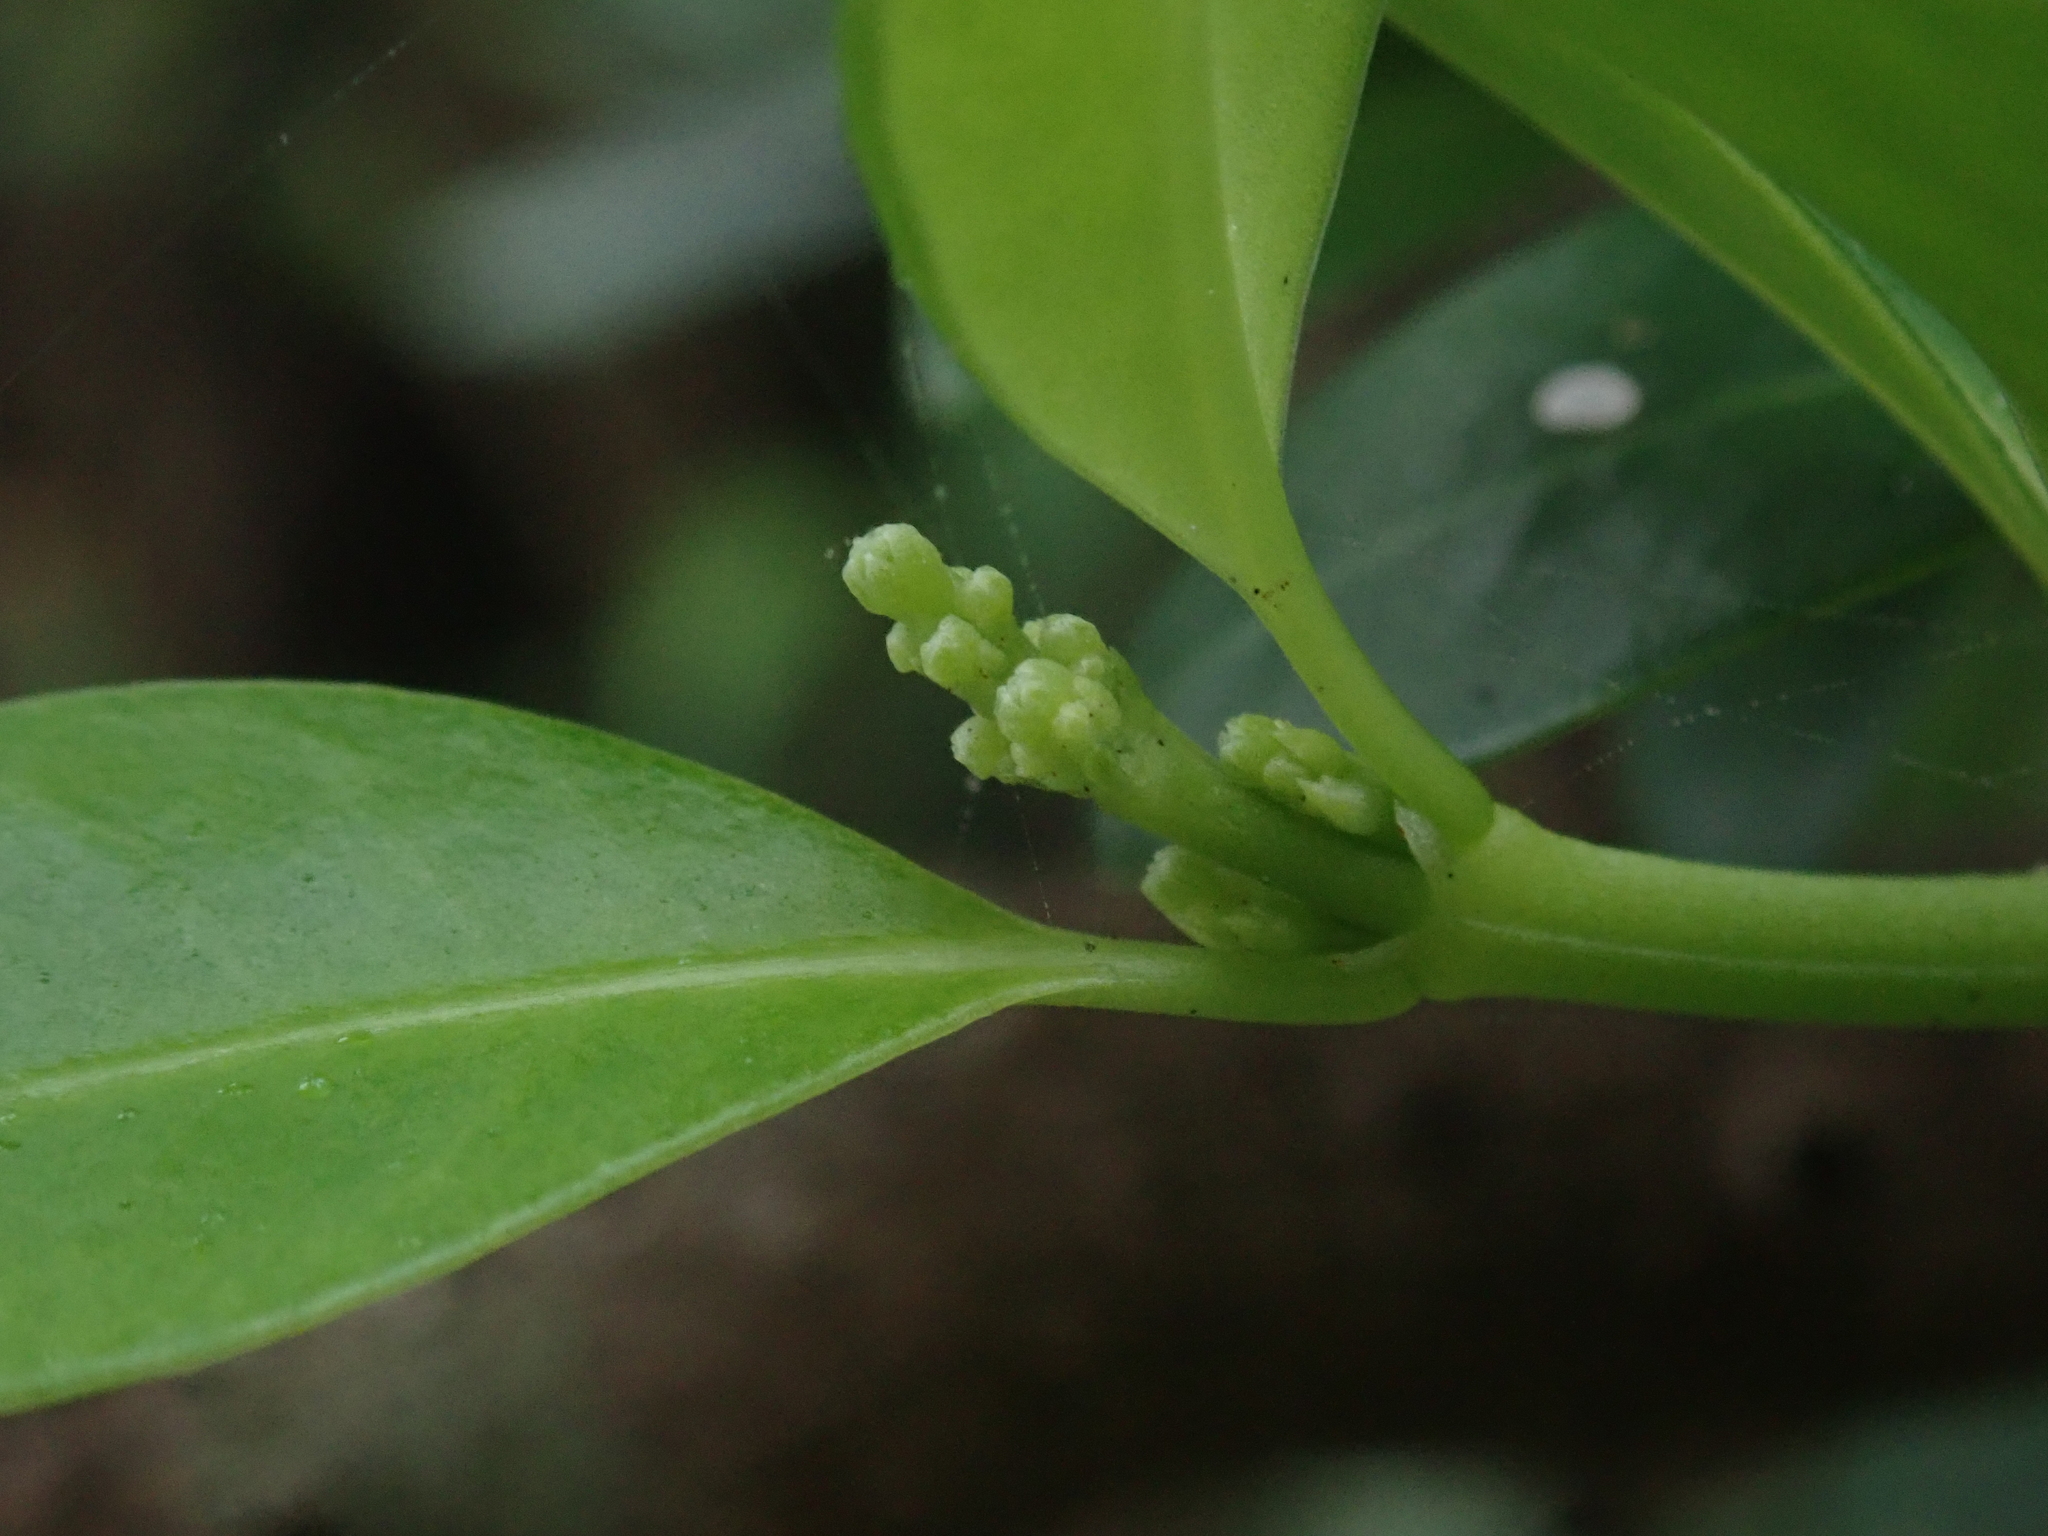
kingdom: Plantae
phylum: Tracheophyta
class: Magnoliopsida
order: Gentianales
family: Rubiaceae
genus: Psychotria
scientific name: Psychotria serpens
